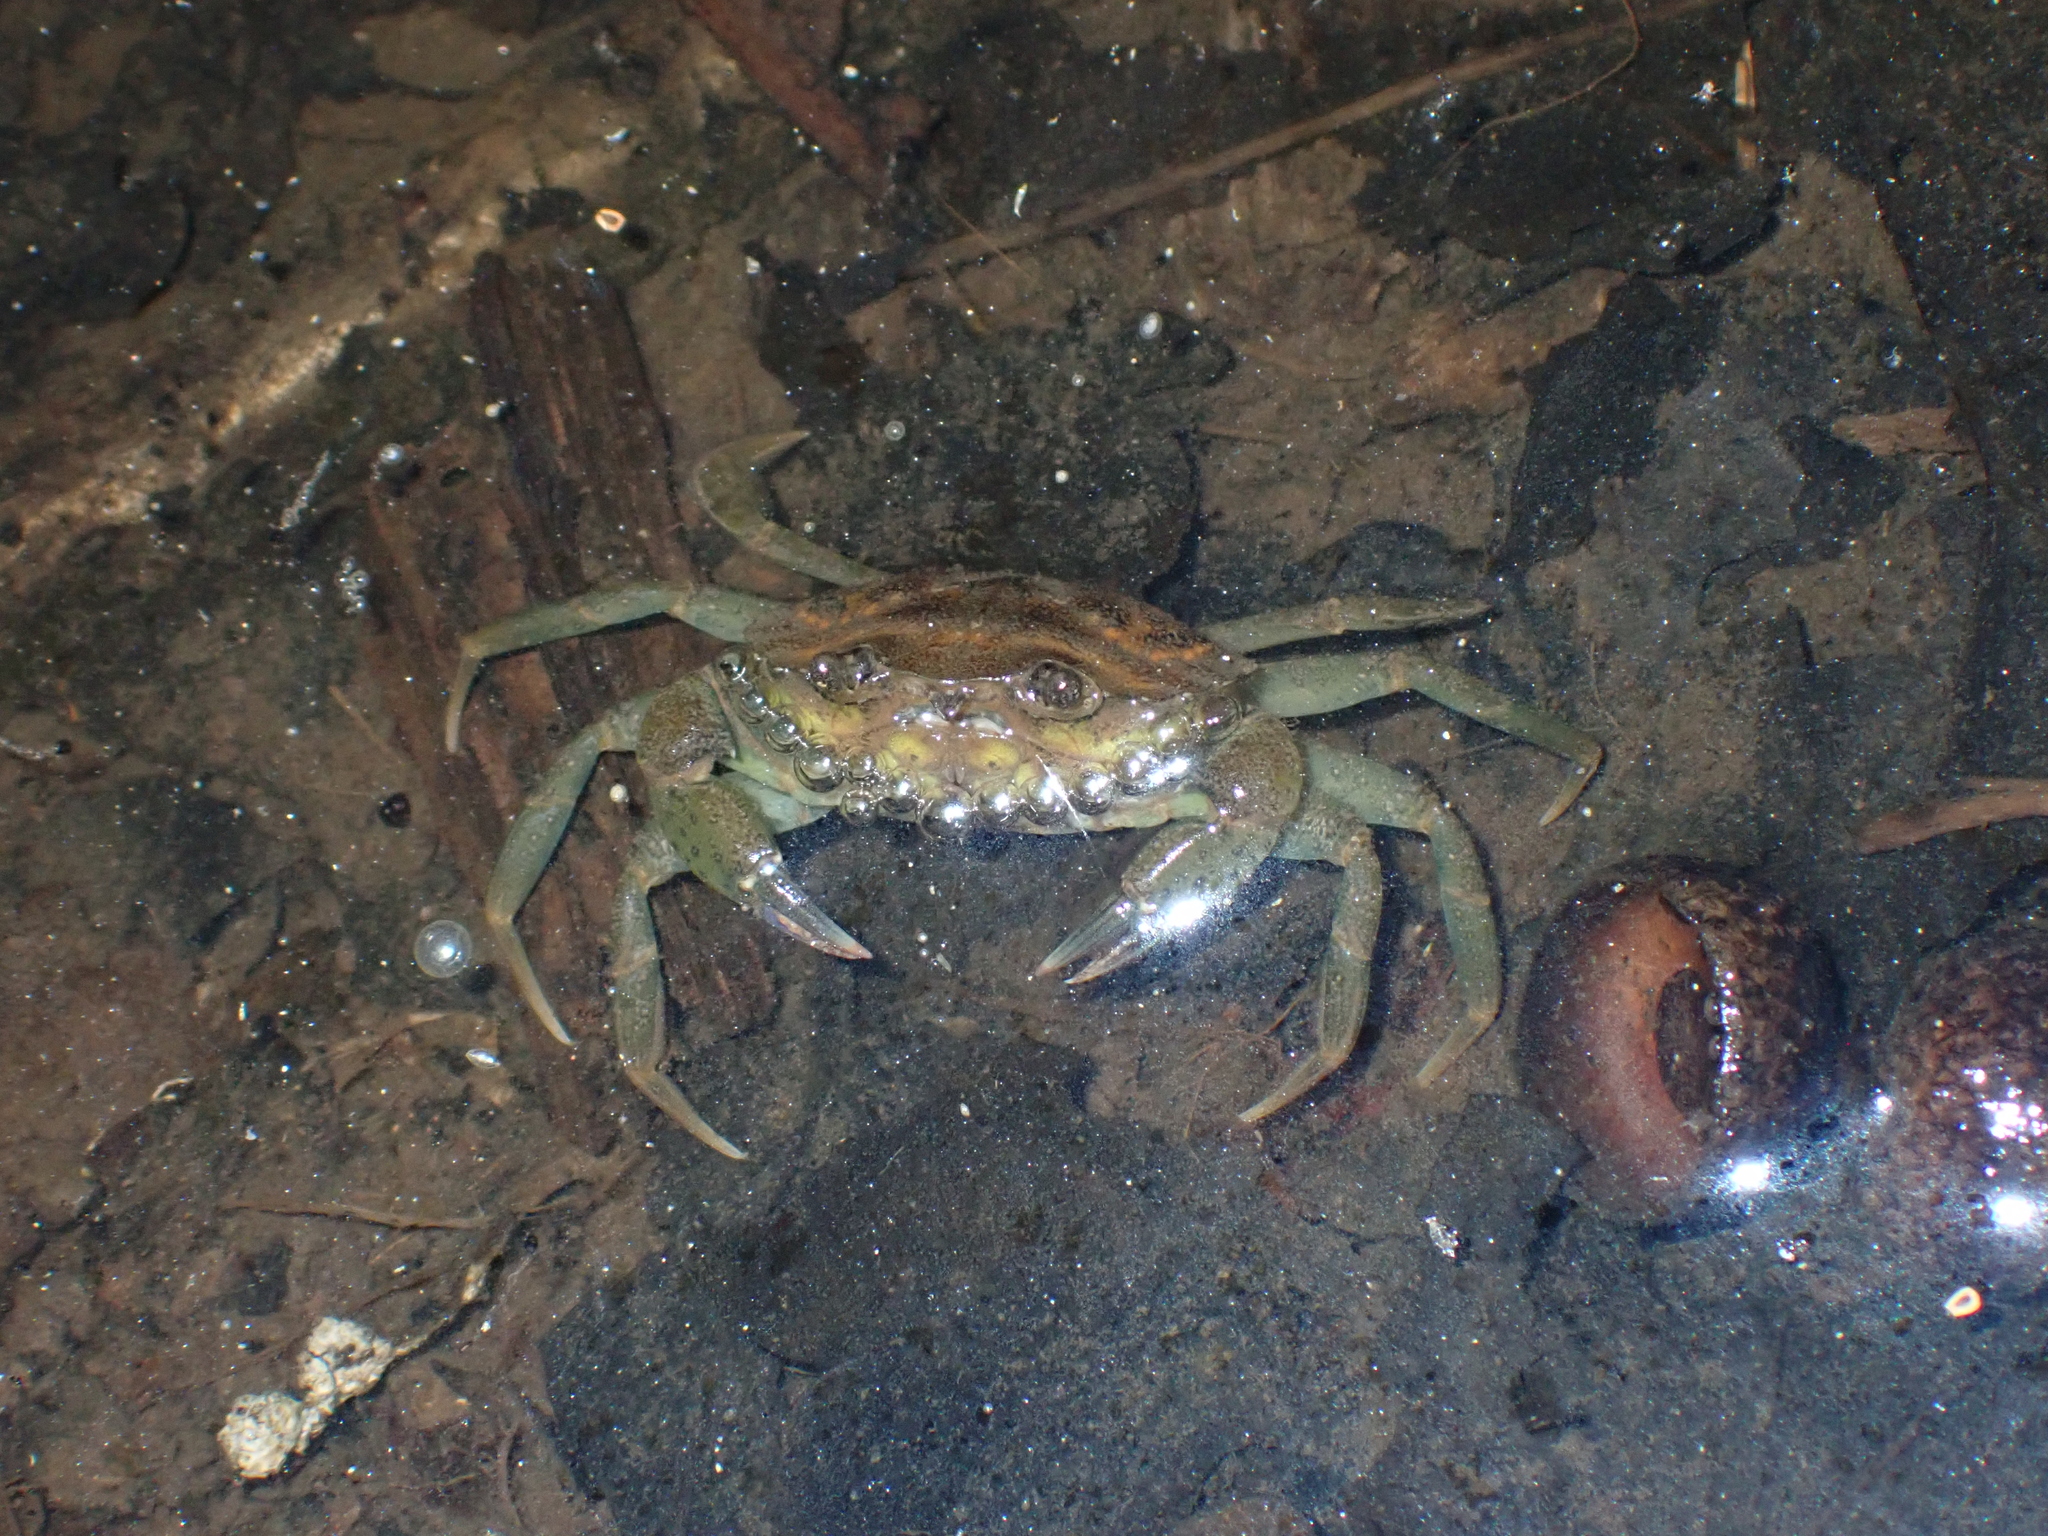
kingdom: Animalia
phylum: Arthropoda
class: Malacostraca
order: Decapoda
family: Carcinidae
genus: Carcinus
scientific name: Carcinus maenas
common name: European green crab
